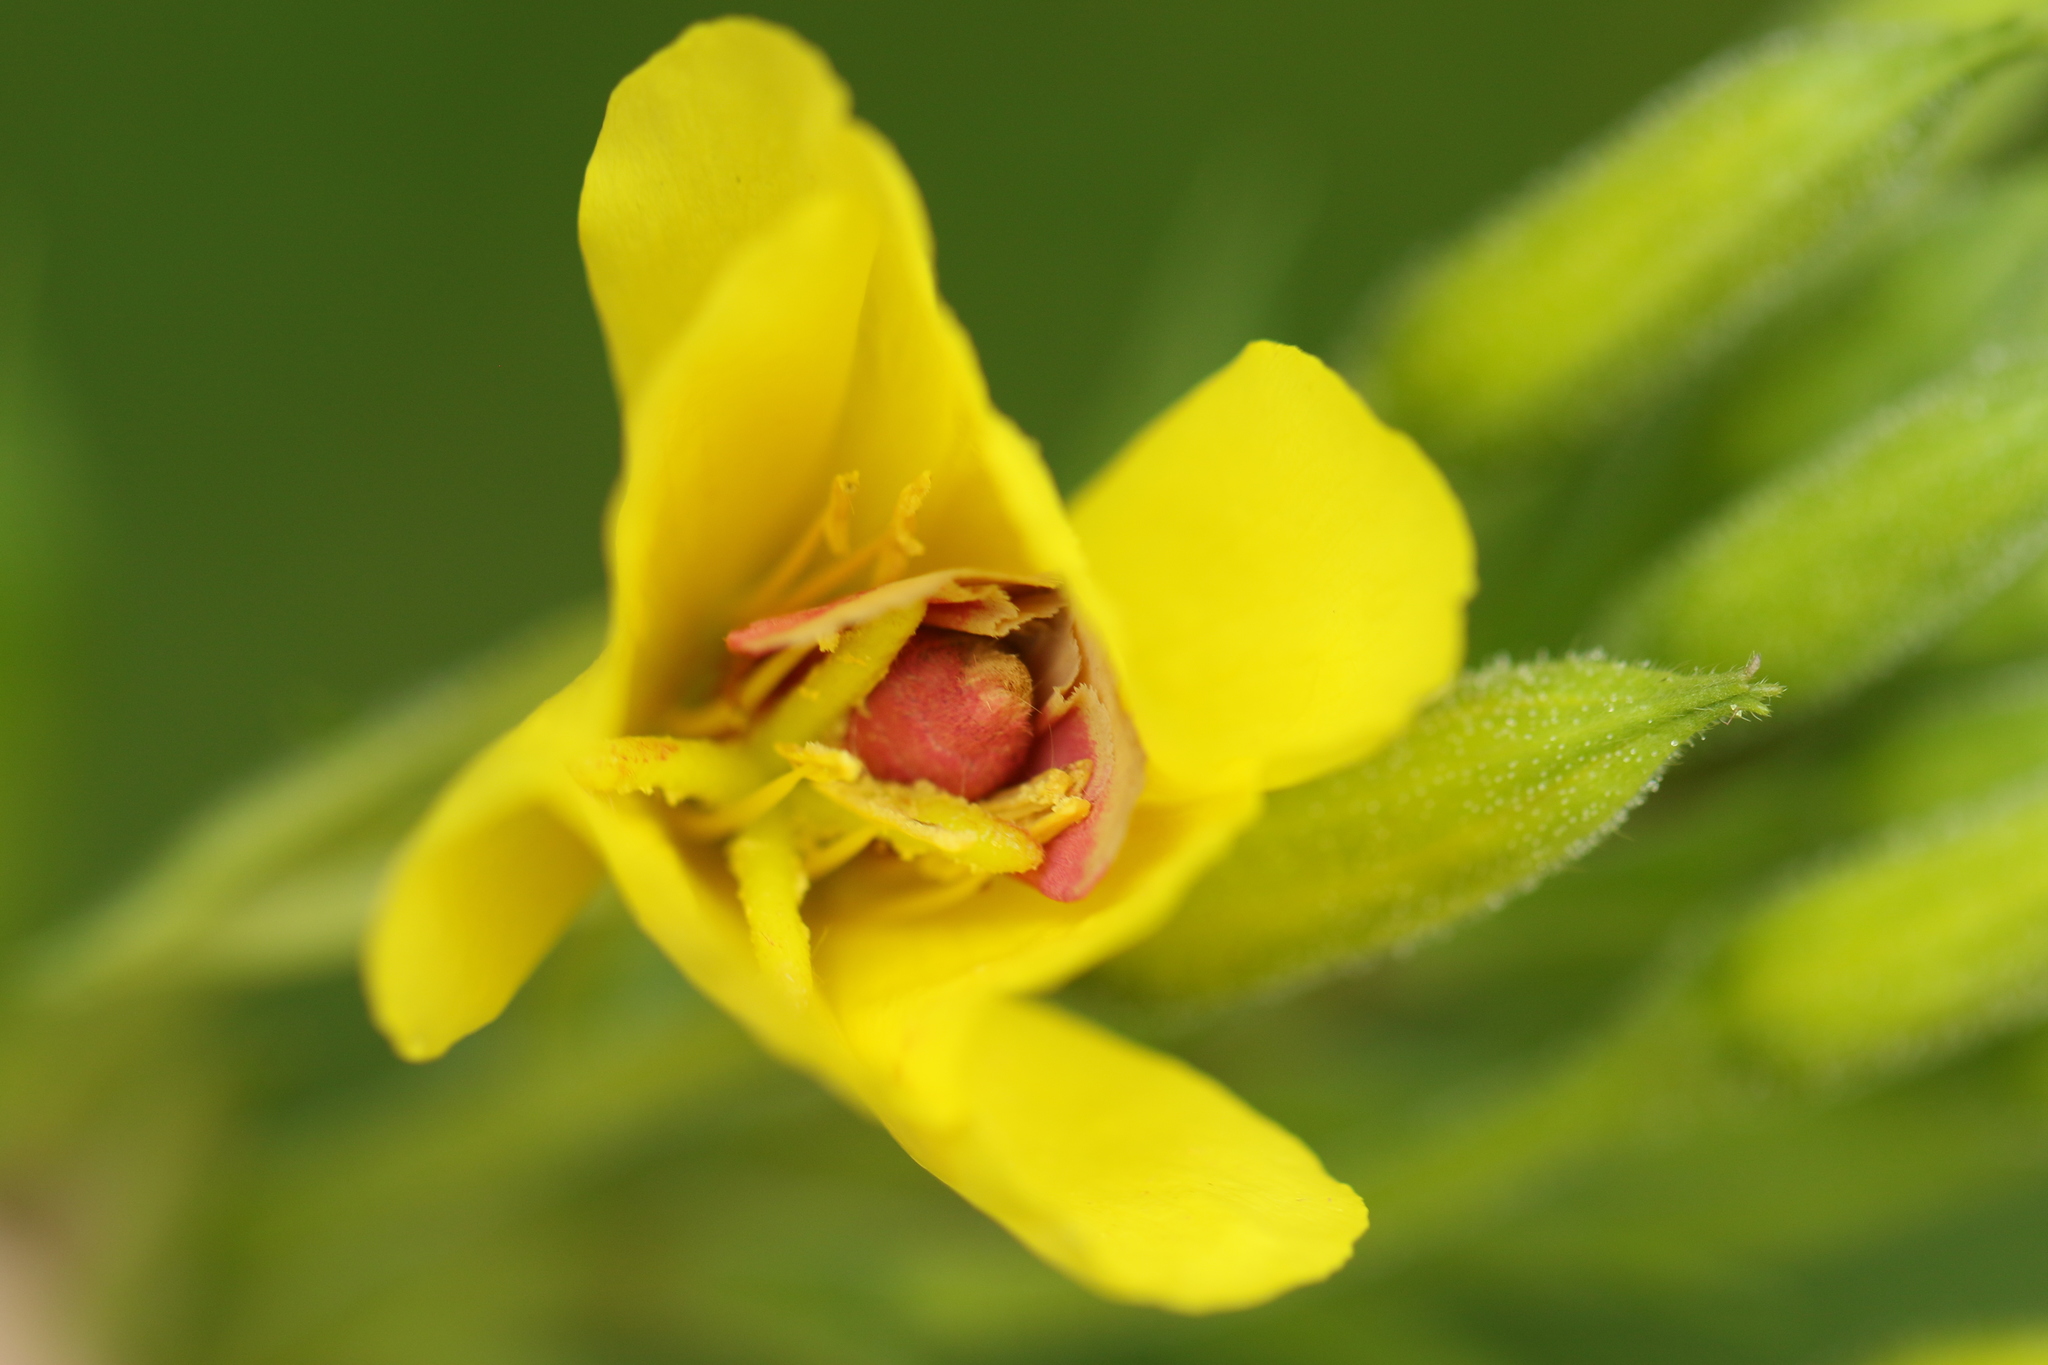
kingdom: Animalia
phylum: Arthropoda
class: Insecta
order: Lepidoptera
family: Noctuidae
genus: Schinia
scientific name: Schinia florida
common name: Primrose moth
